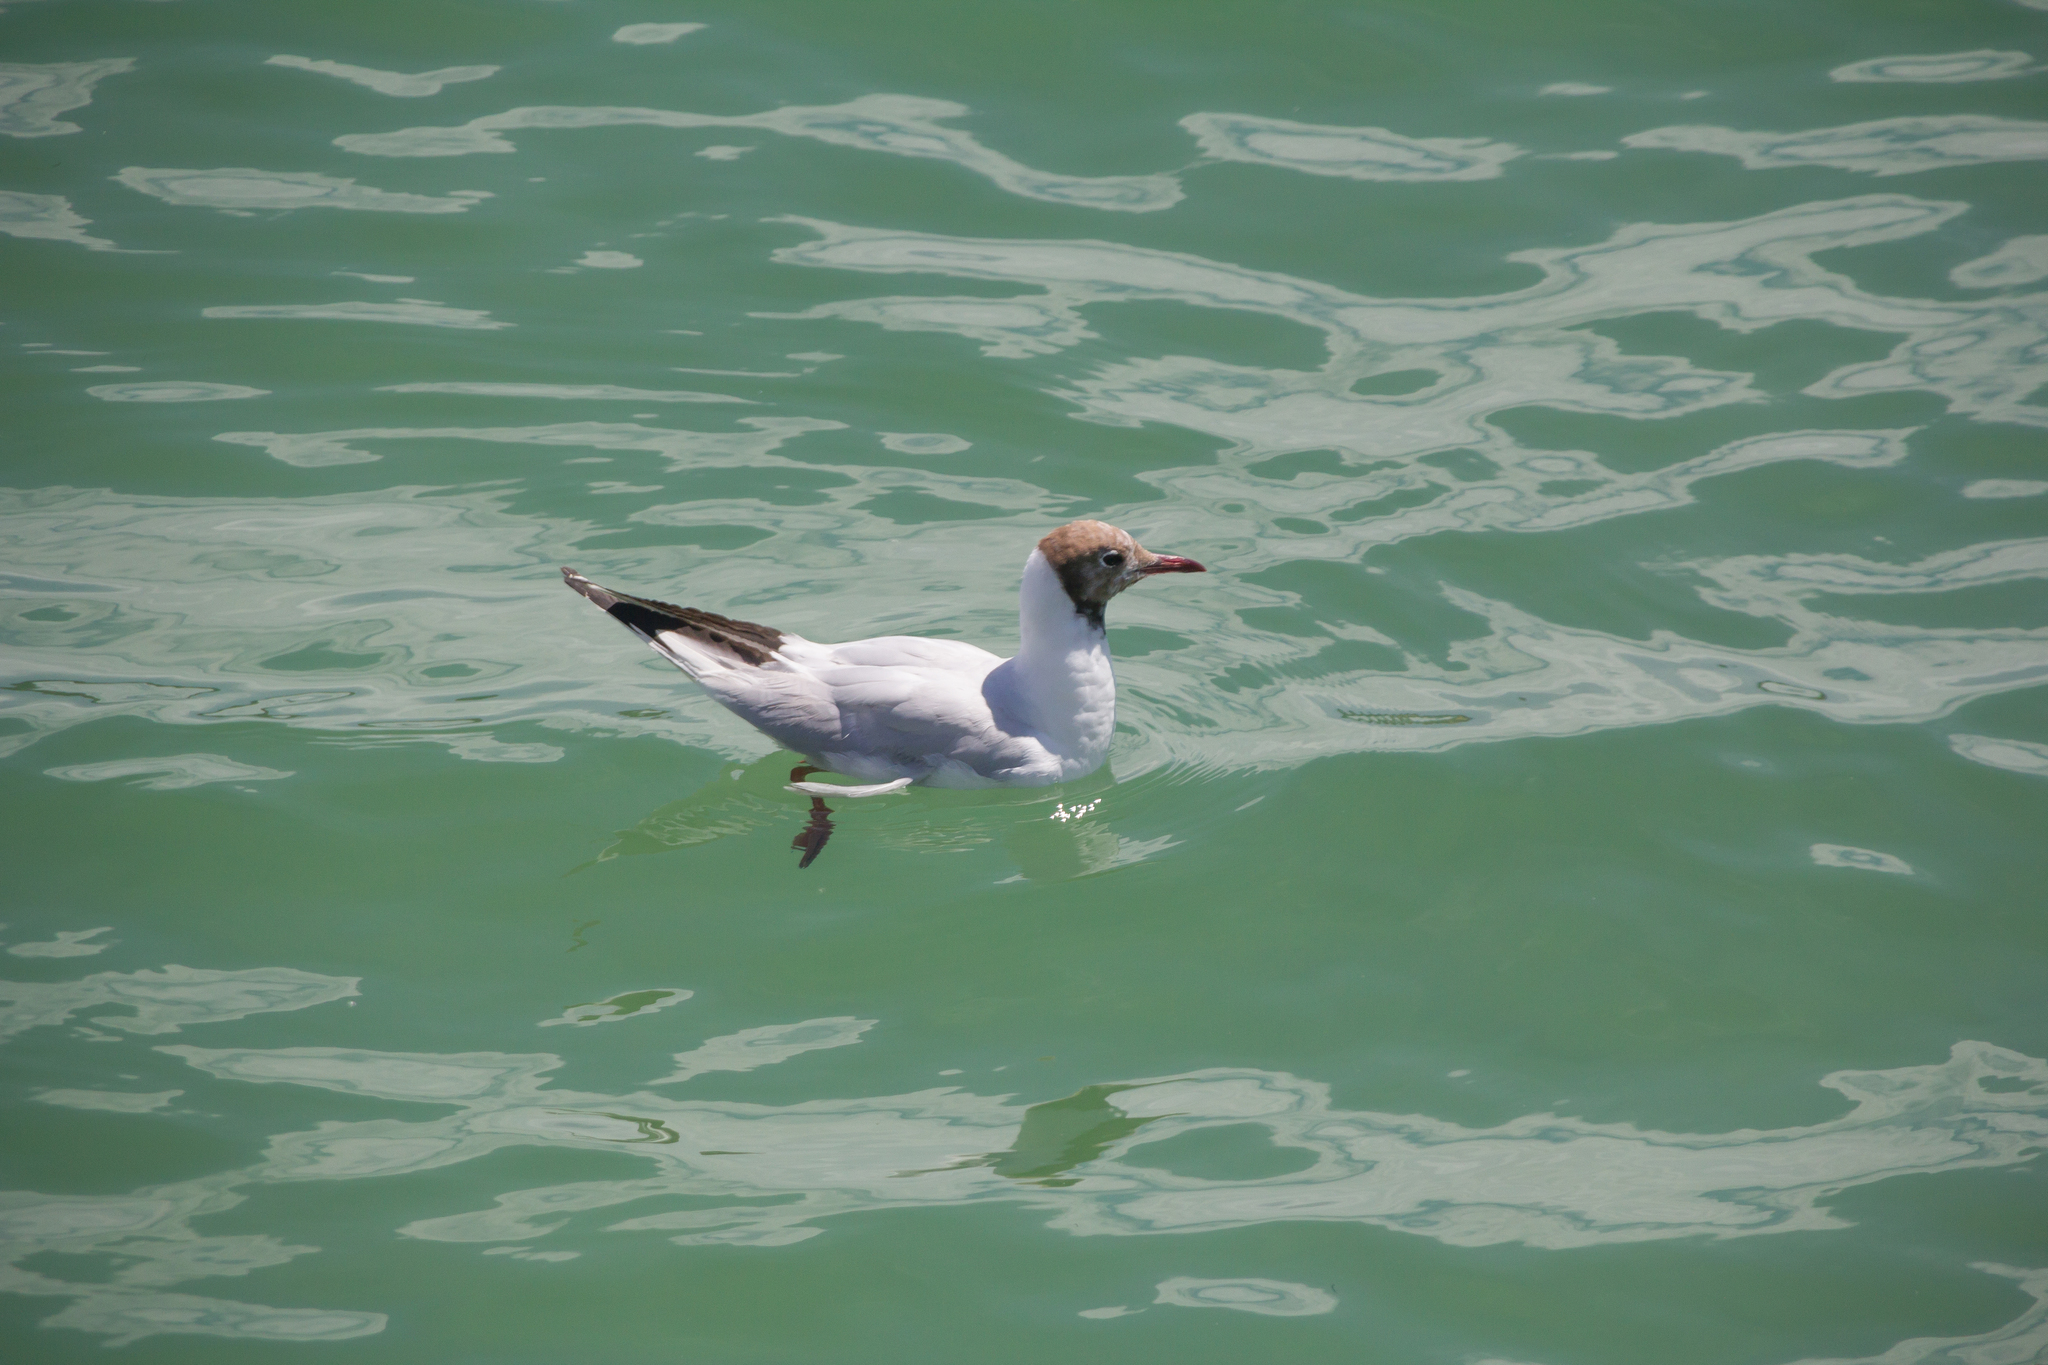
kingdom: Animalia
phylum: Chordata
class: Aves
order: Charadriiformes
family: Laridae
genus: Chroicocephalus
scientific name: Chroicocephalus ridibundus
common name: Black-headed gull
